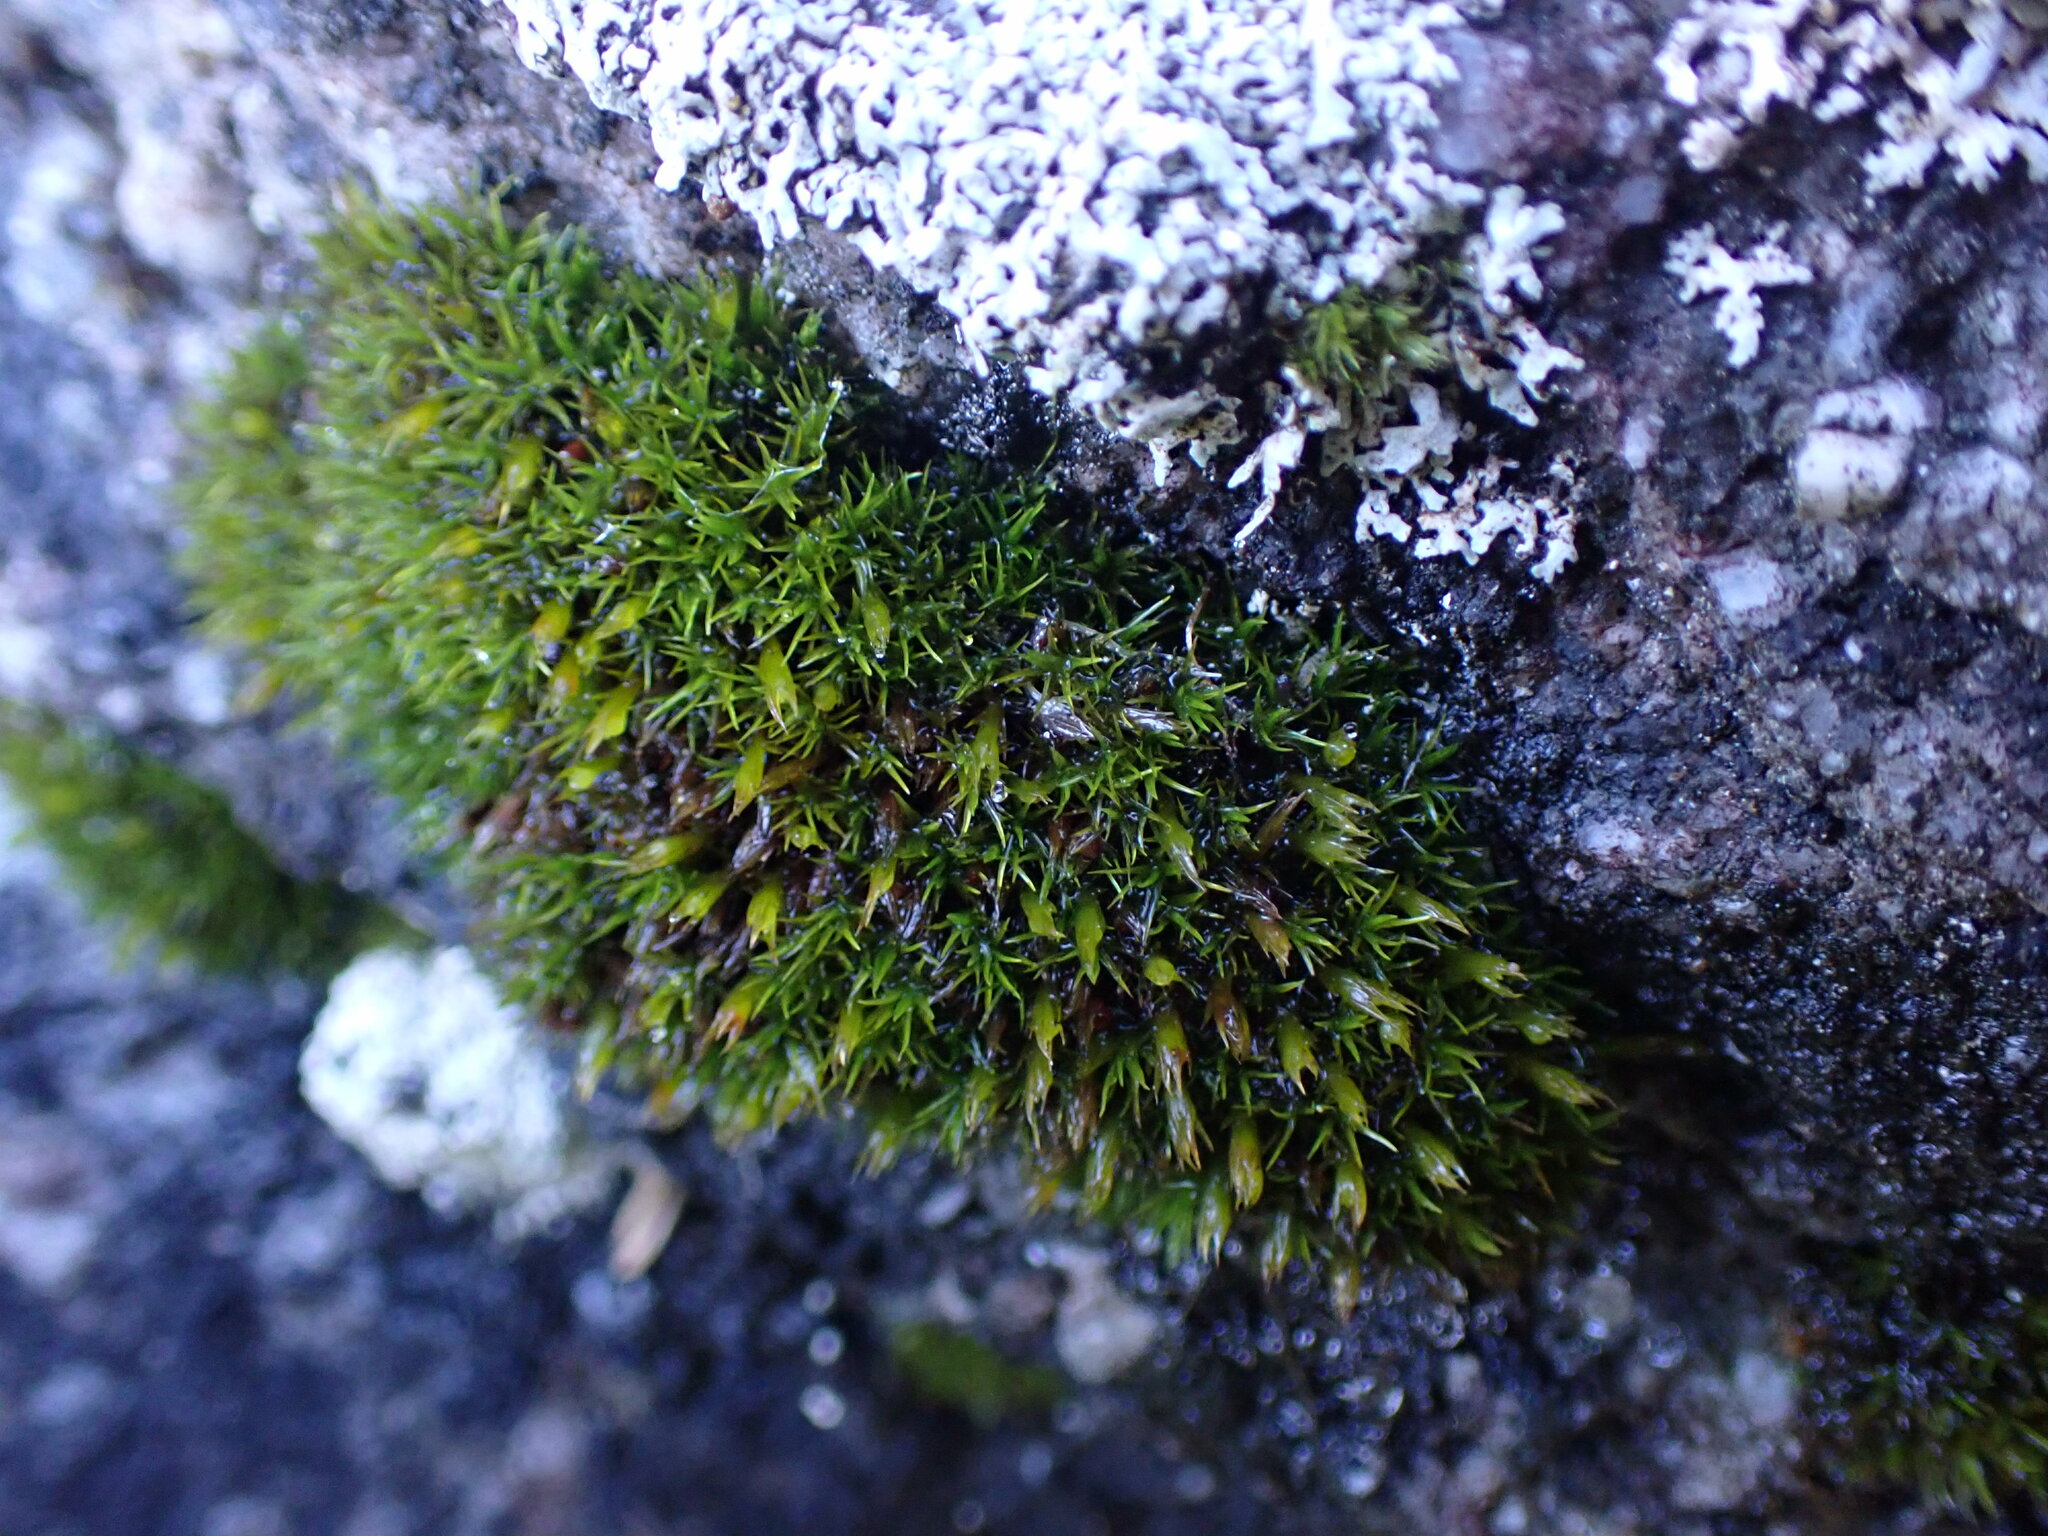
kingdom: Plantae
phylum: Bryophyta
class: Bryopsida
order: Grimmiales
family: Grimmiaceae
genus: Schistidium
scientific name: Schistidium maritimum
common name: Seaside bloom moss
